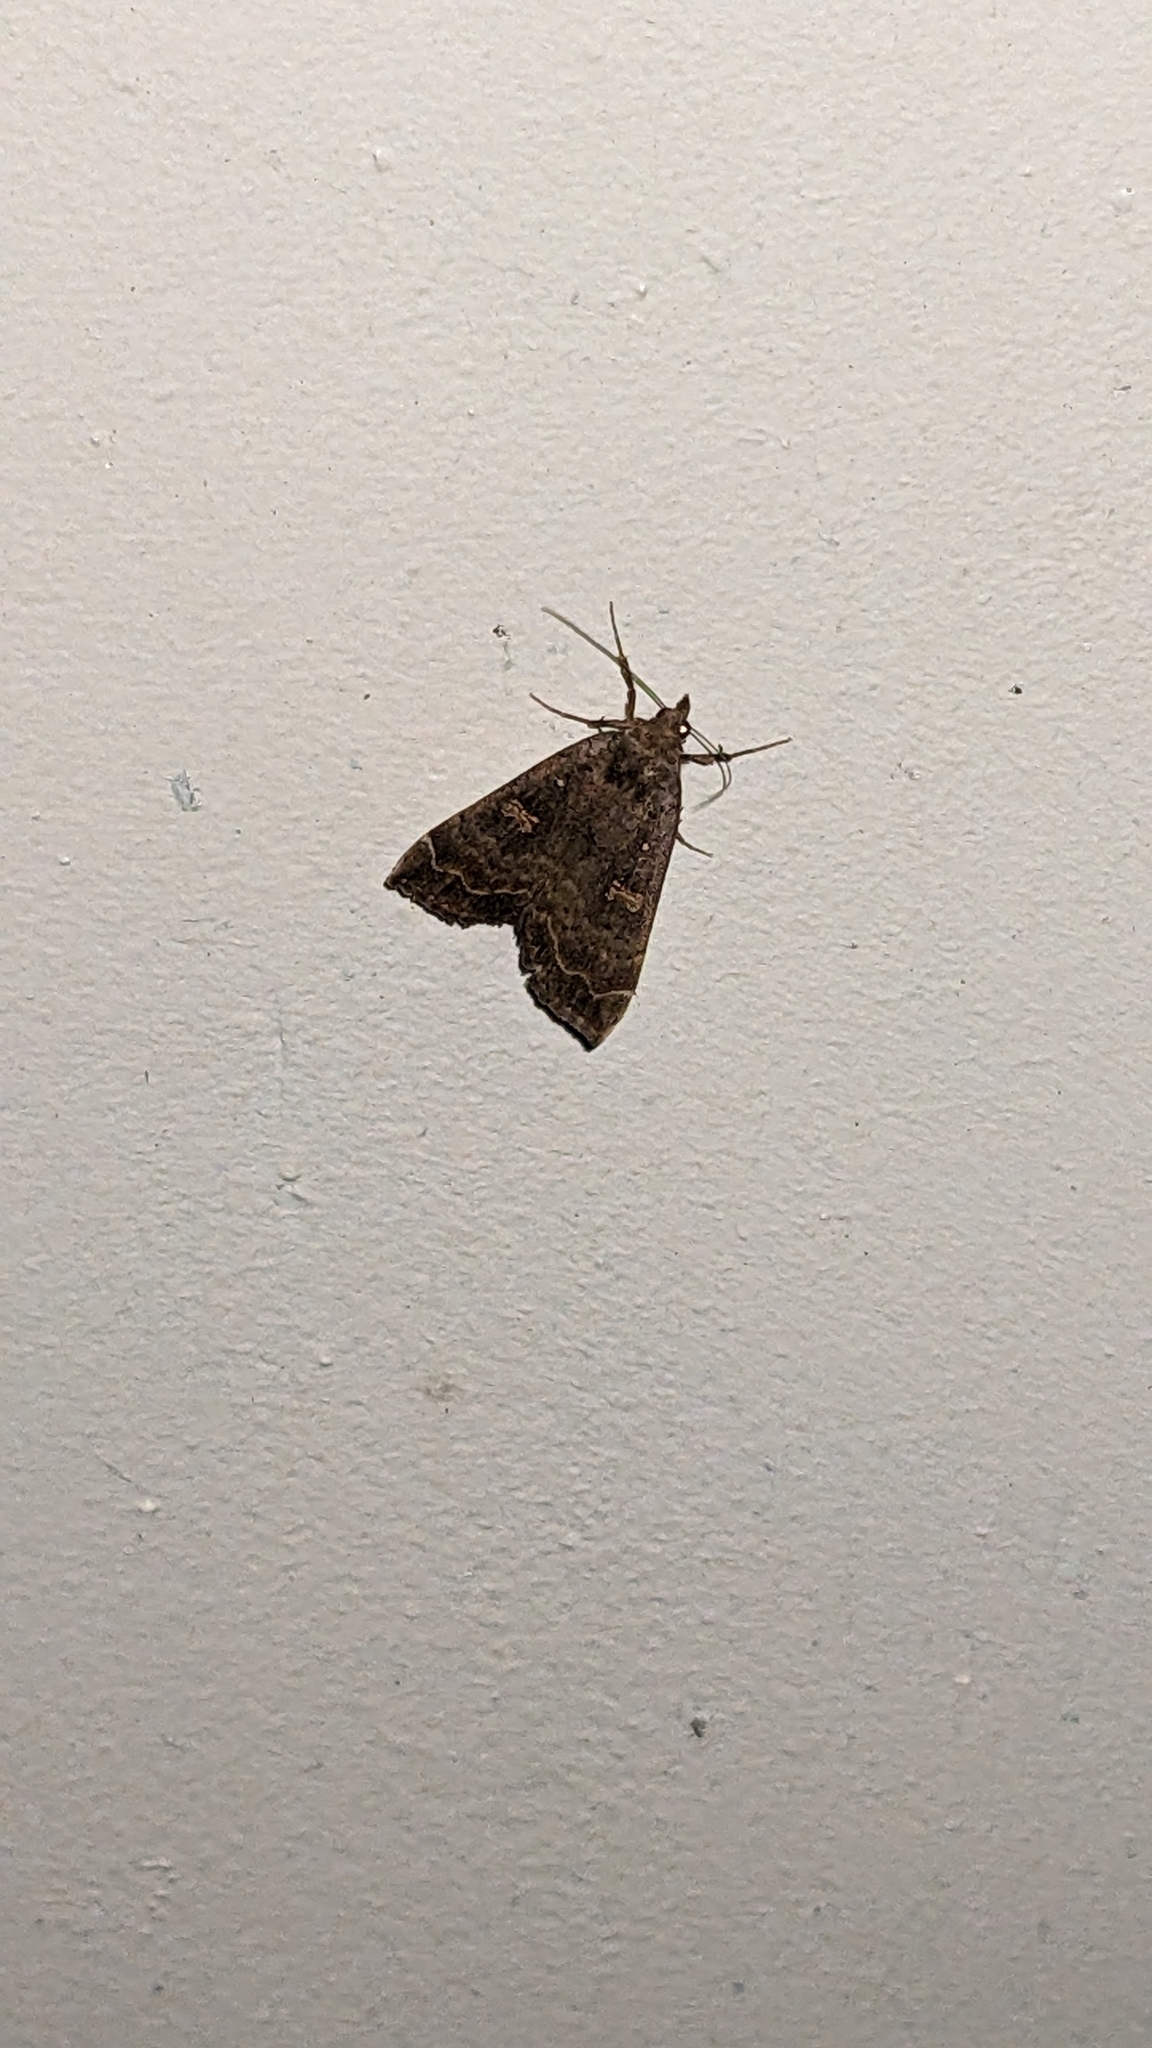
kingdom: Animalia
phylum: Arthropoda
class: Insecta
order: Lepidoptera
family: Erebidae
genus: Rhapsa
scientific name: Rhapsa scotosialis
